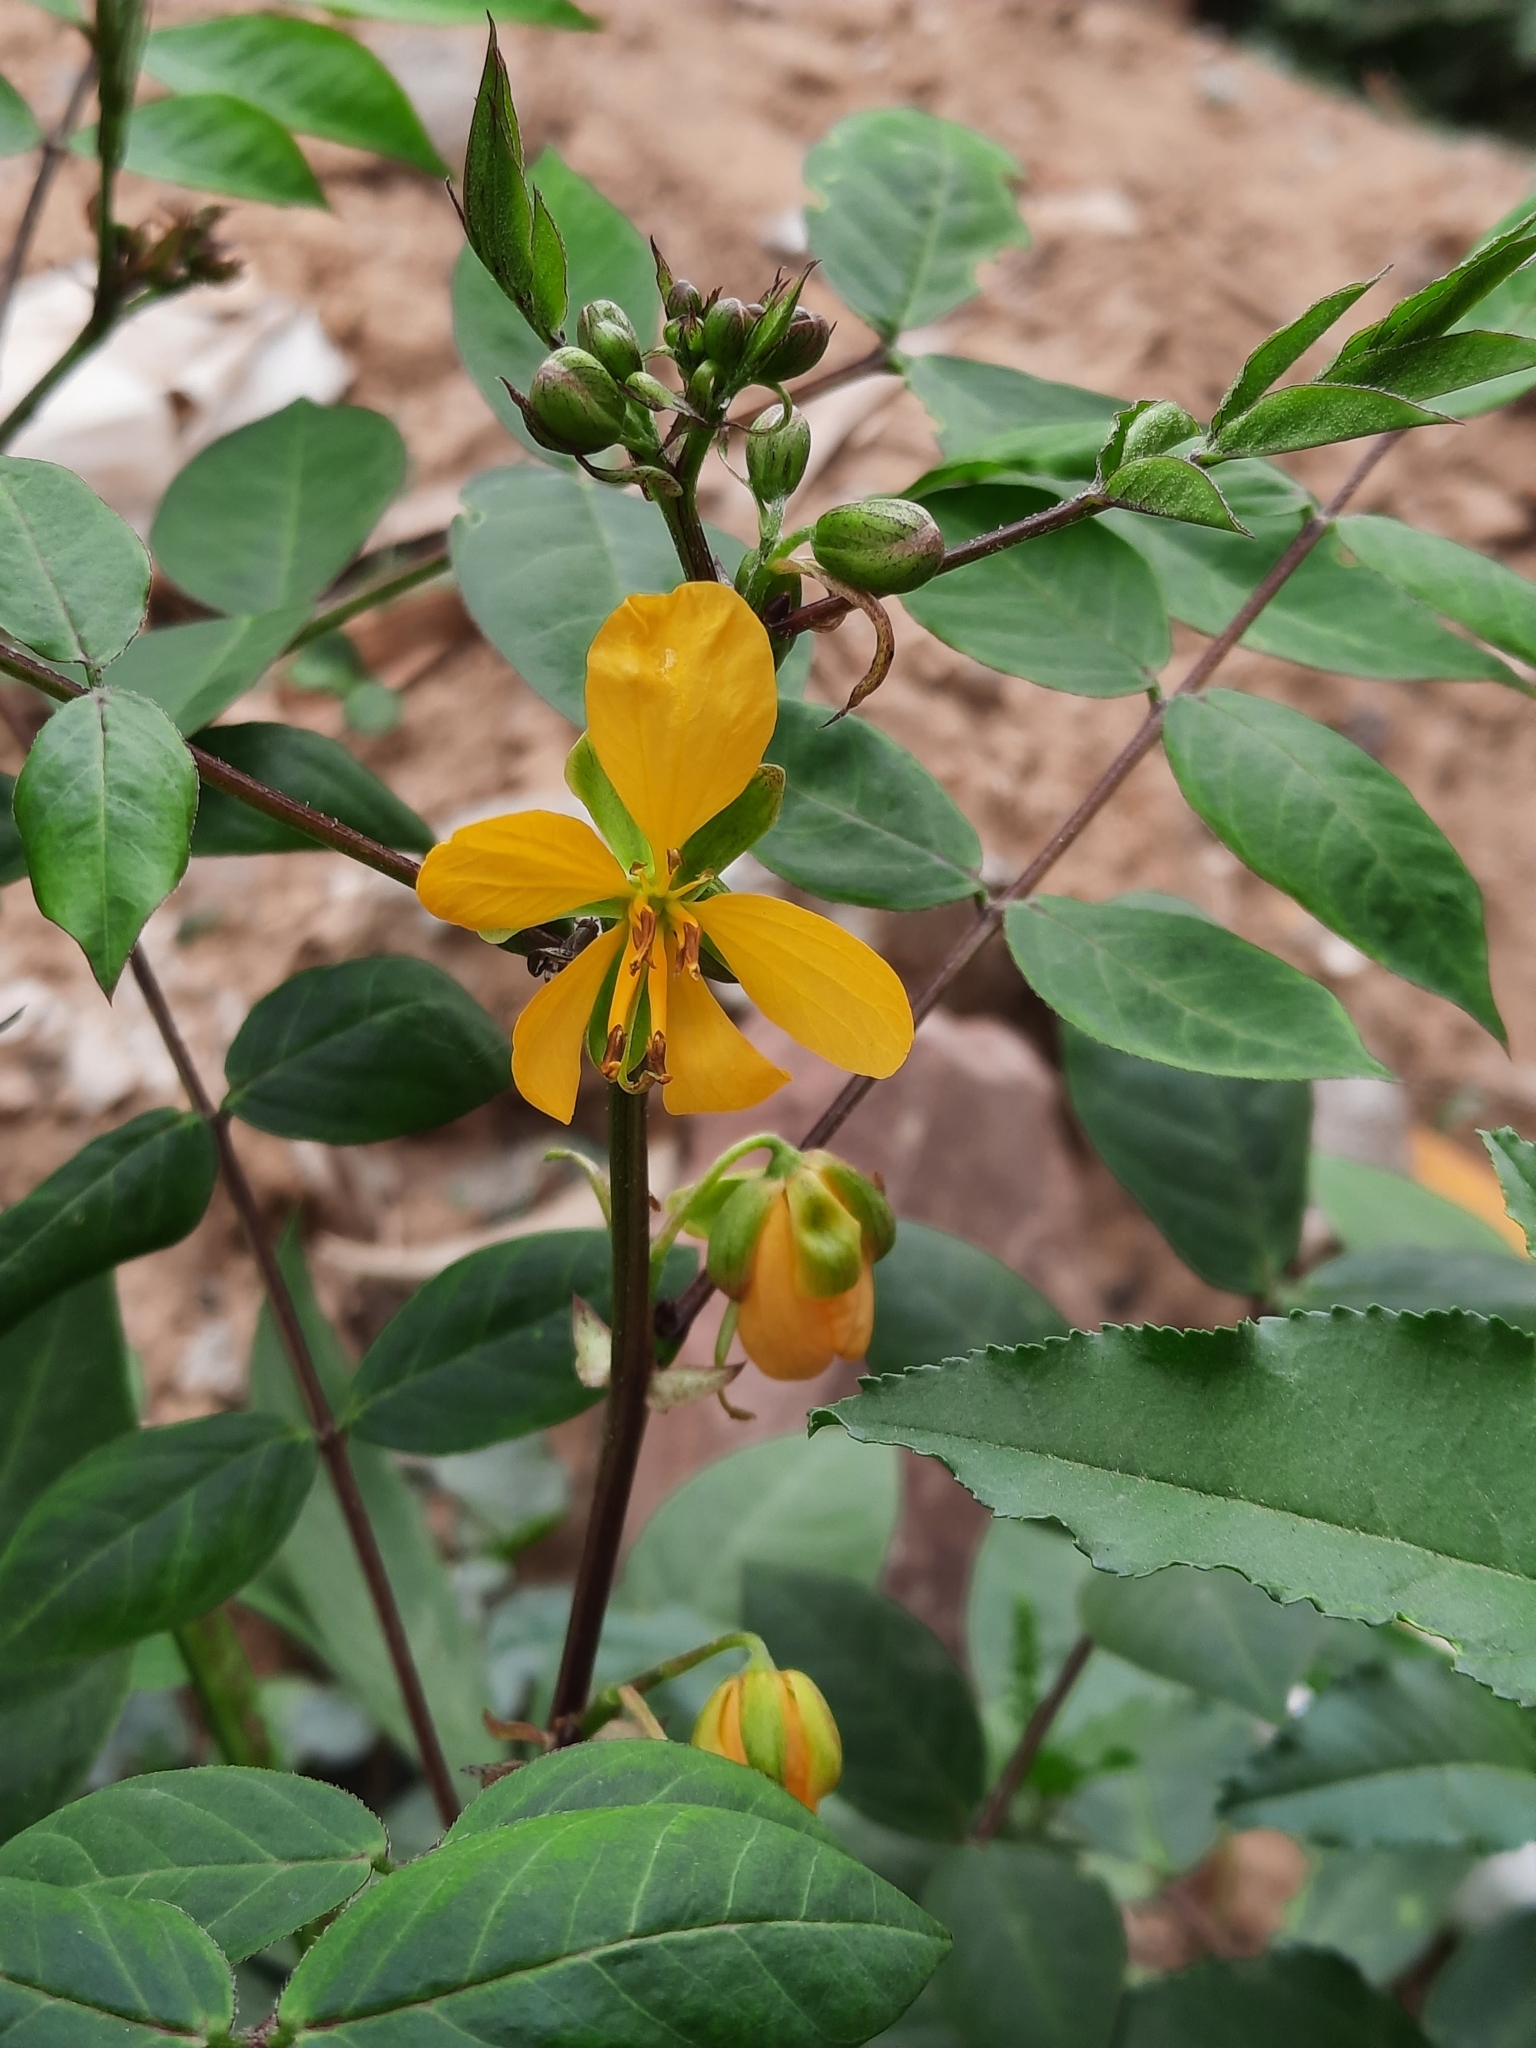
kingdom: Plantae
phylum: Tracheophyta
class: Magnoliopsida
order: Fabales
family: Fabaceae
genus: Senna
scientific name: Senna occidentalis
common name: Septicweed
